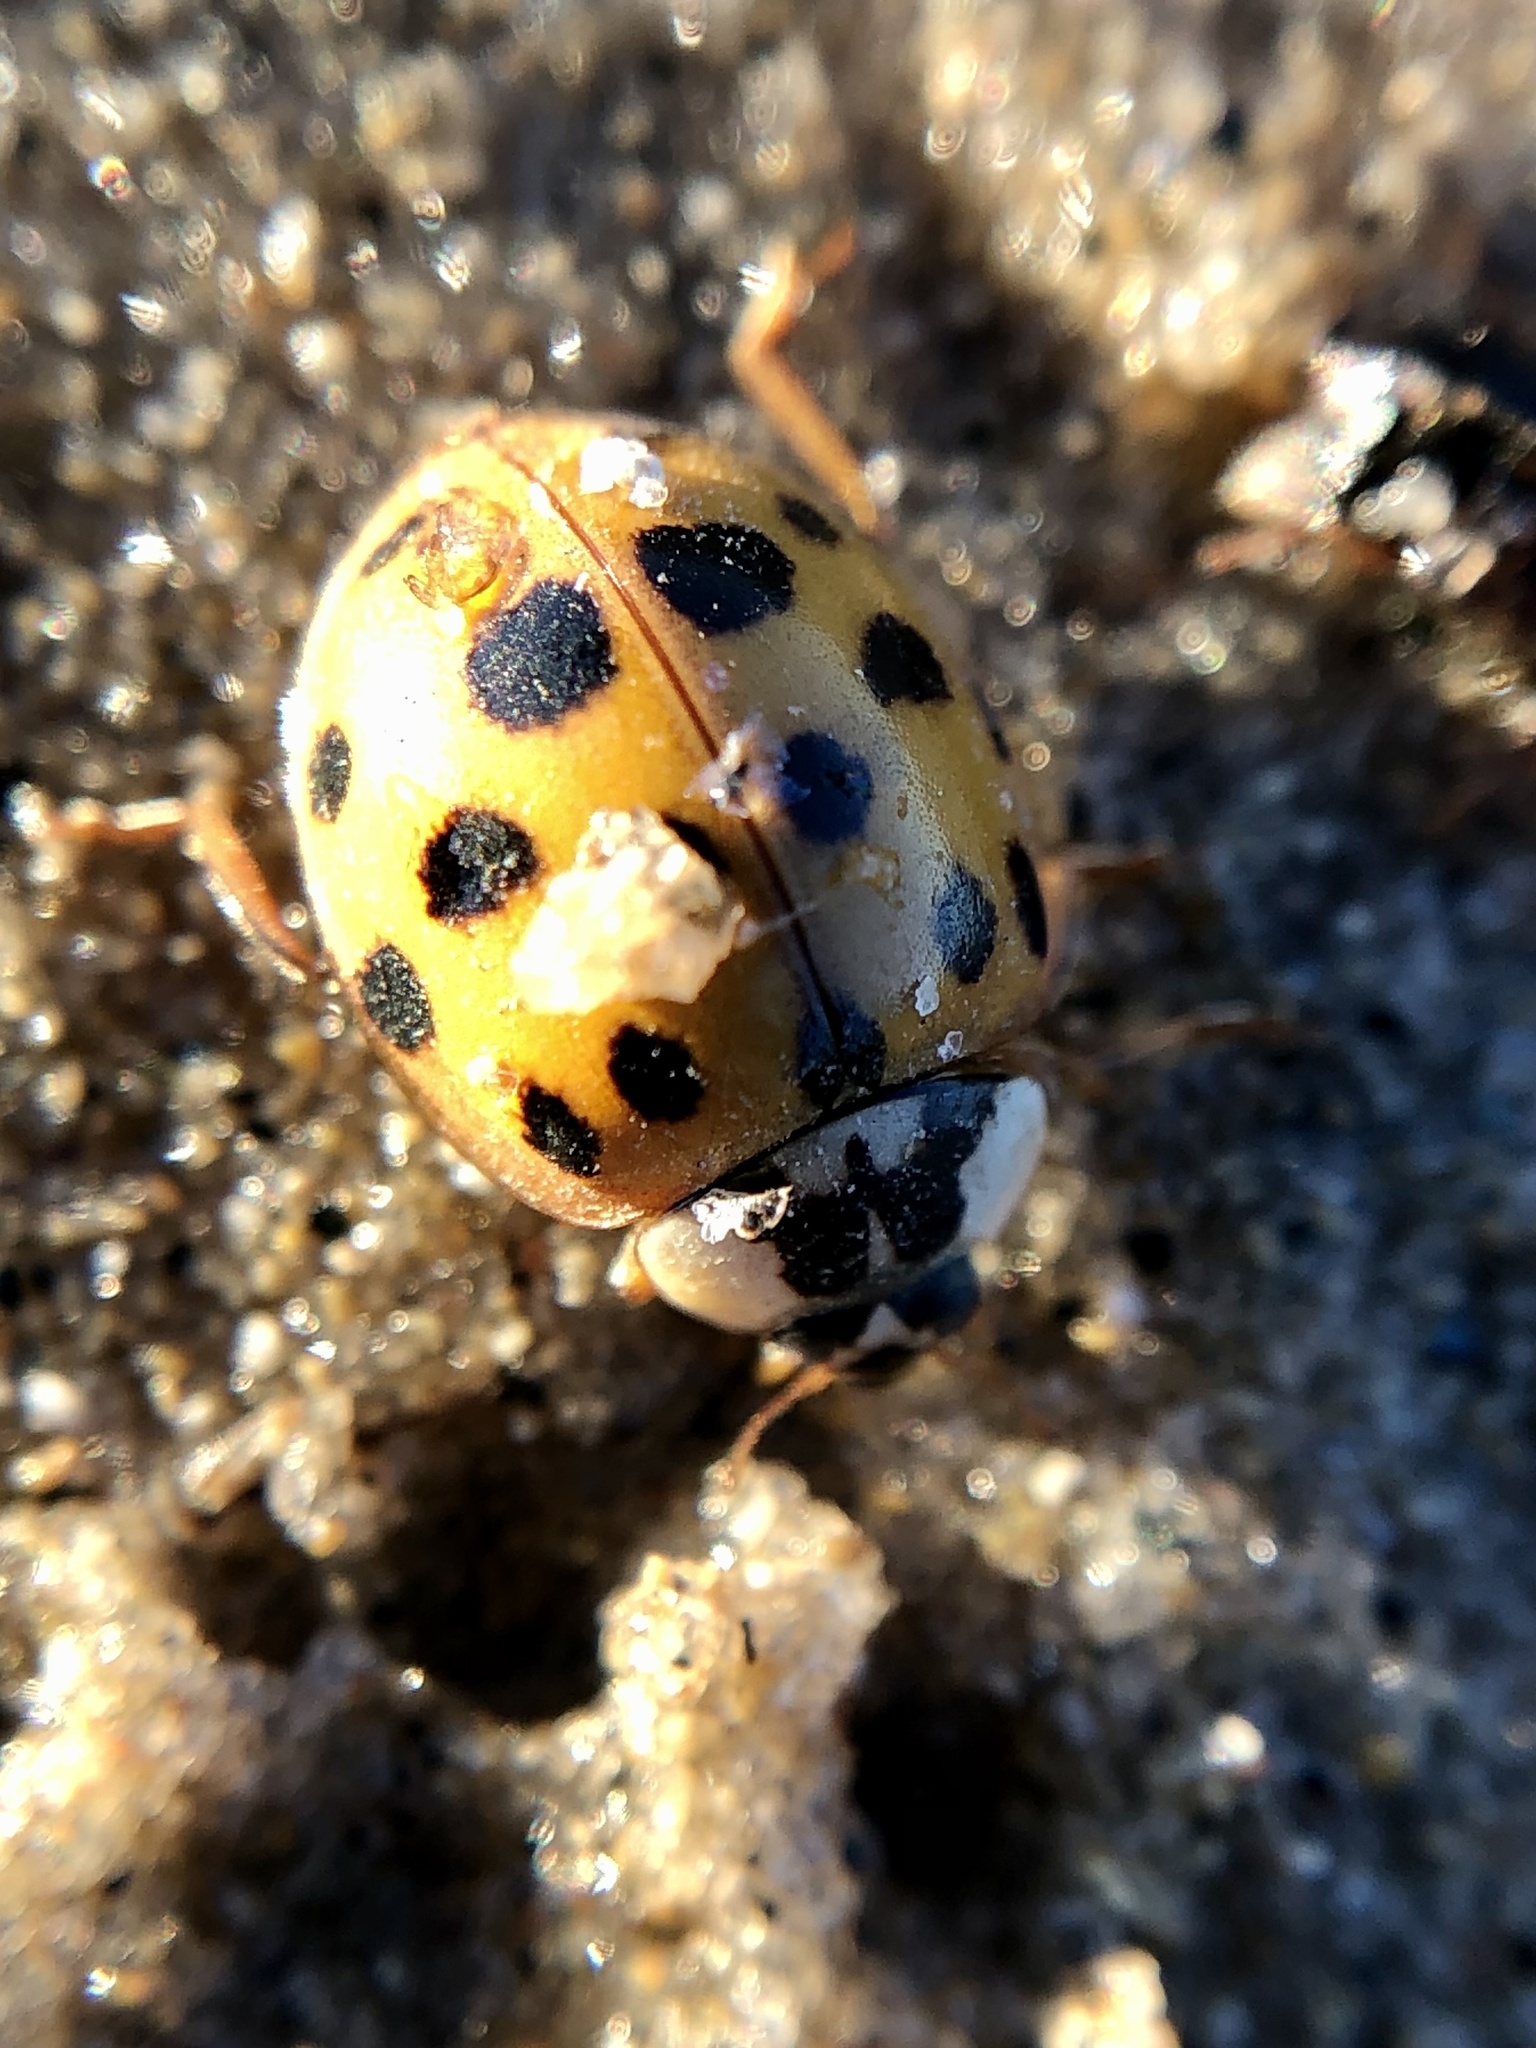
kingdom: Animalia
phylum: Arthropoda
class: Insecta
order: Coleoptera
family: Coccinellidae
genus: Harmonia
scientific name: Harmonia axyridis
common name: Harlequin ladybird
